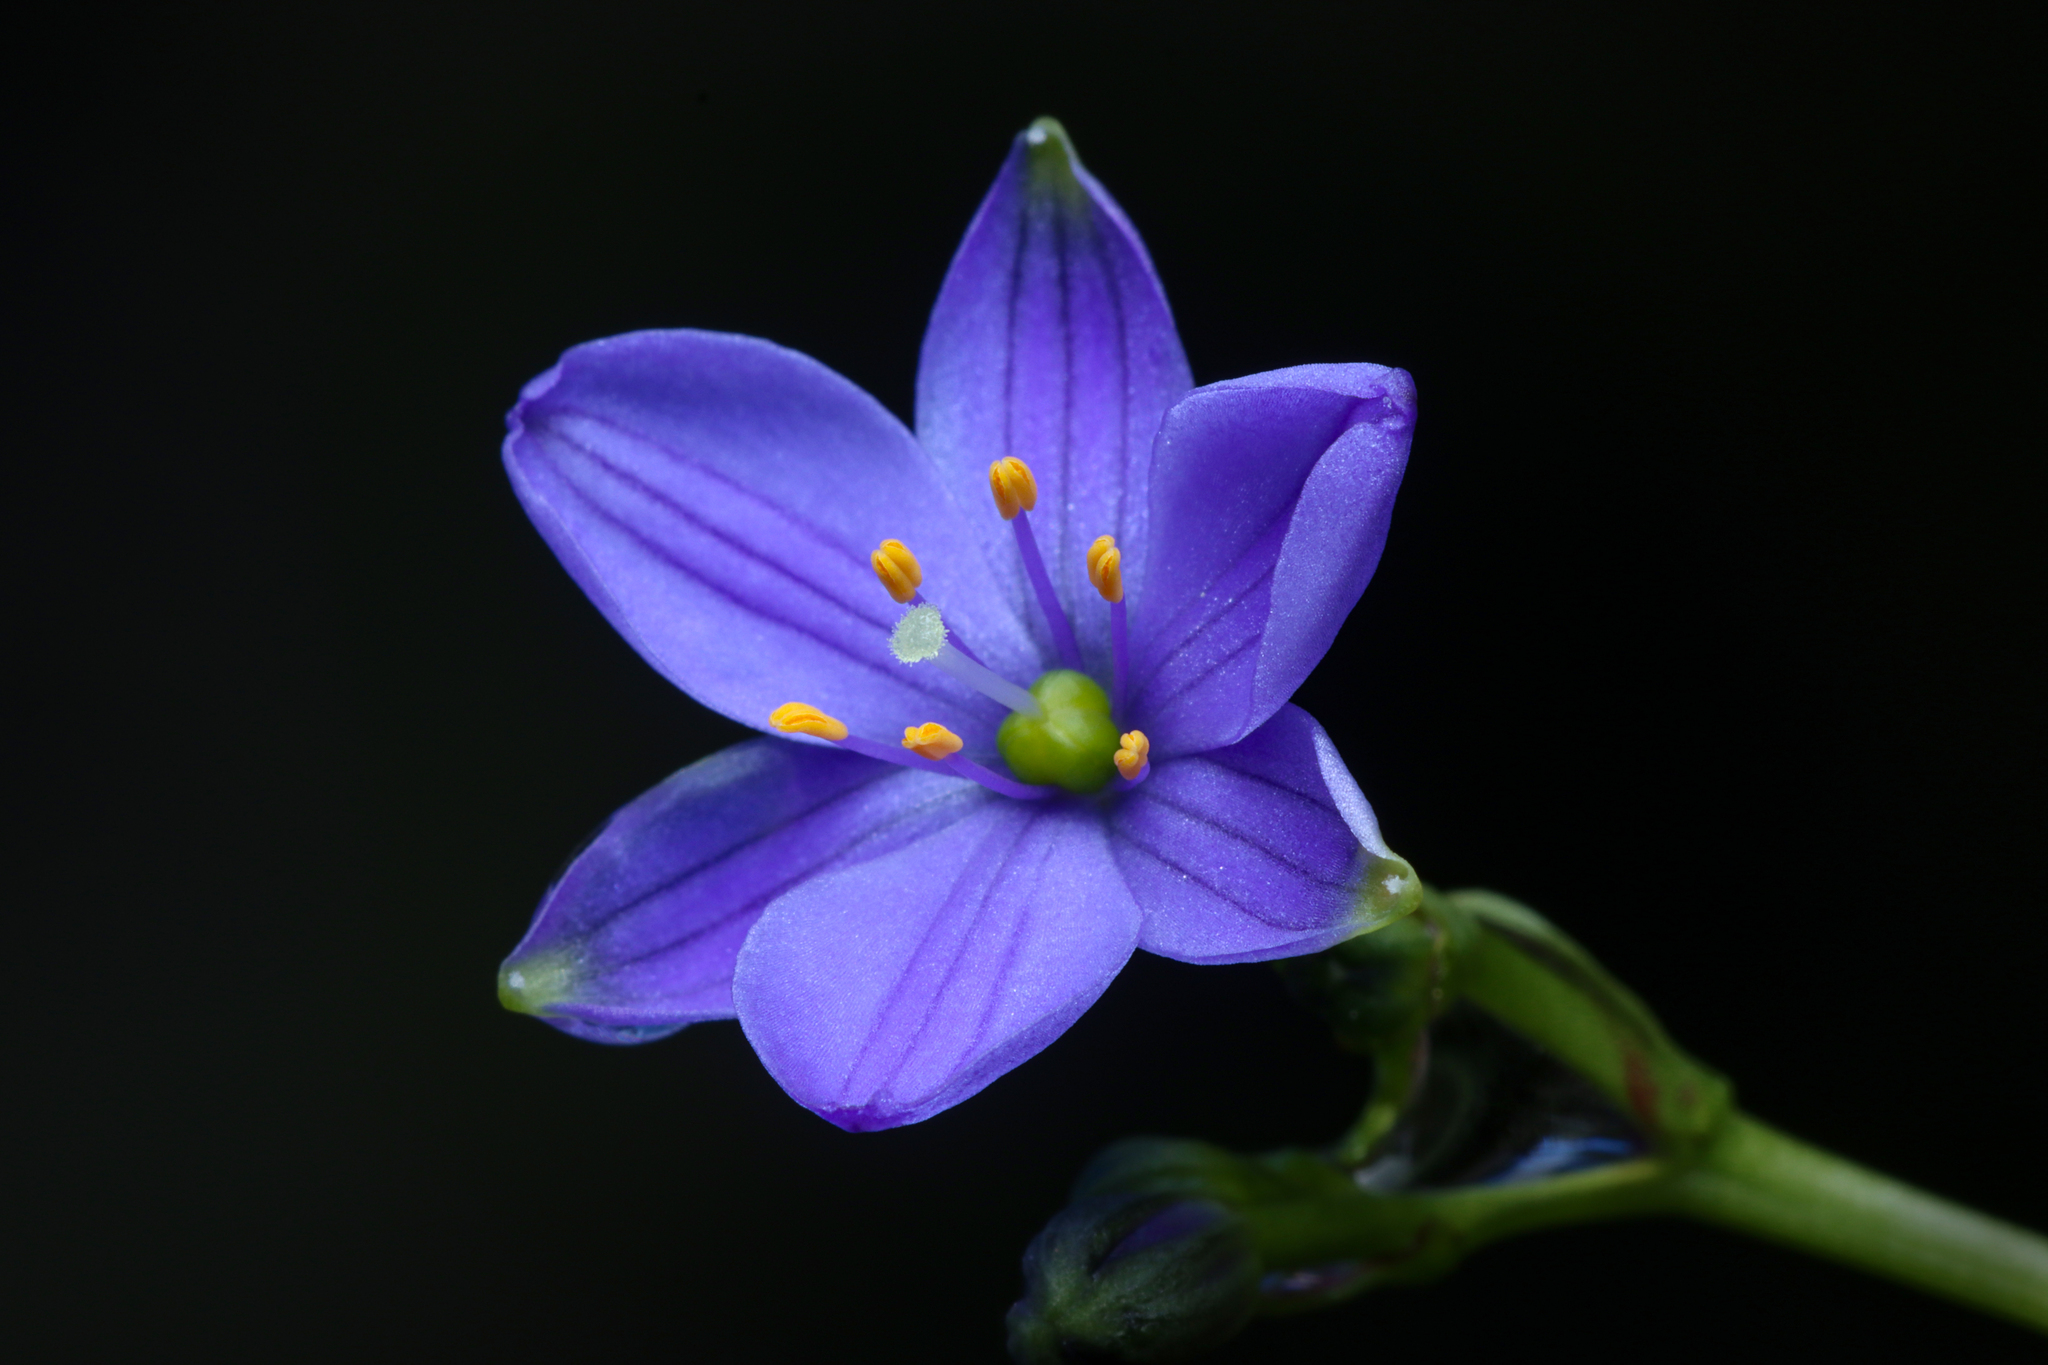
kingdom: Plantae
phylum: Tracheophyta
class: Liliopsida
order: Asparagales
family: Asphodelaceae
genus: Chamaescilla
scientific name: Chamaescilla corymbosa
